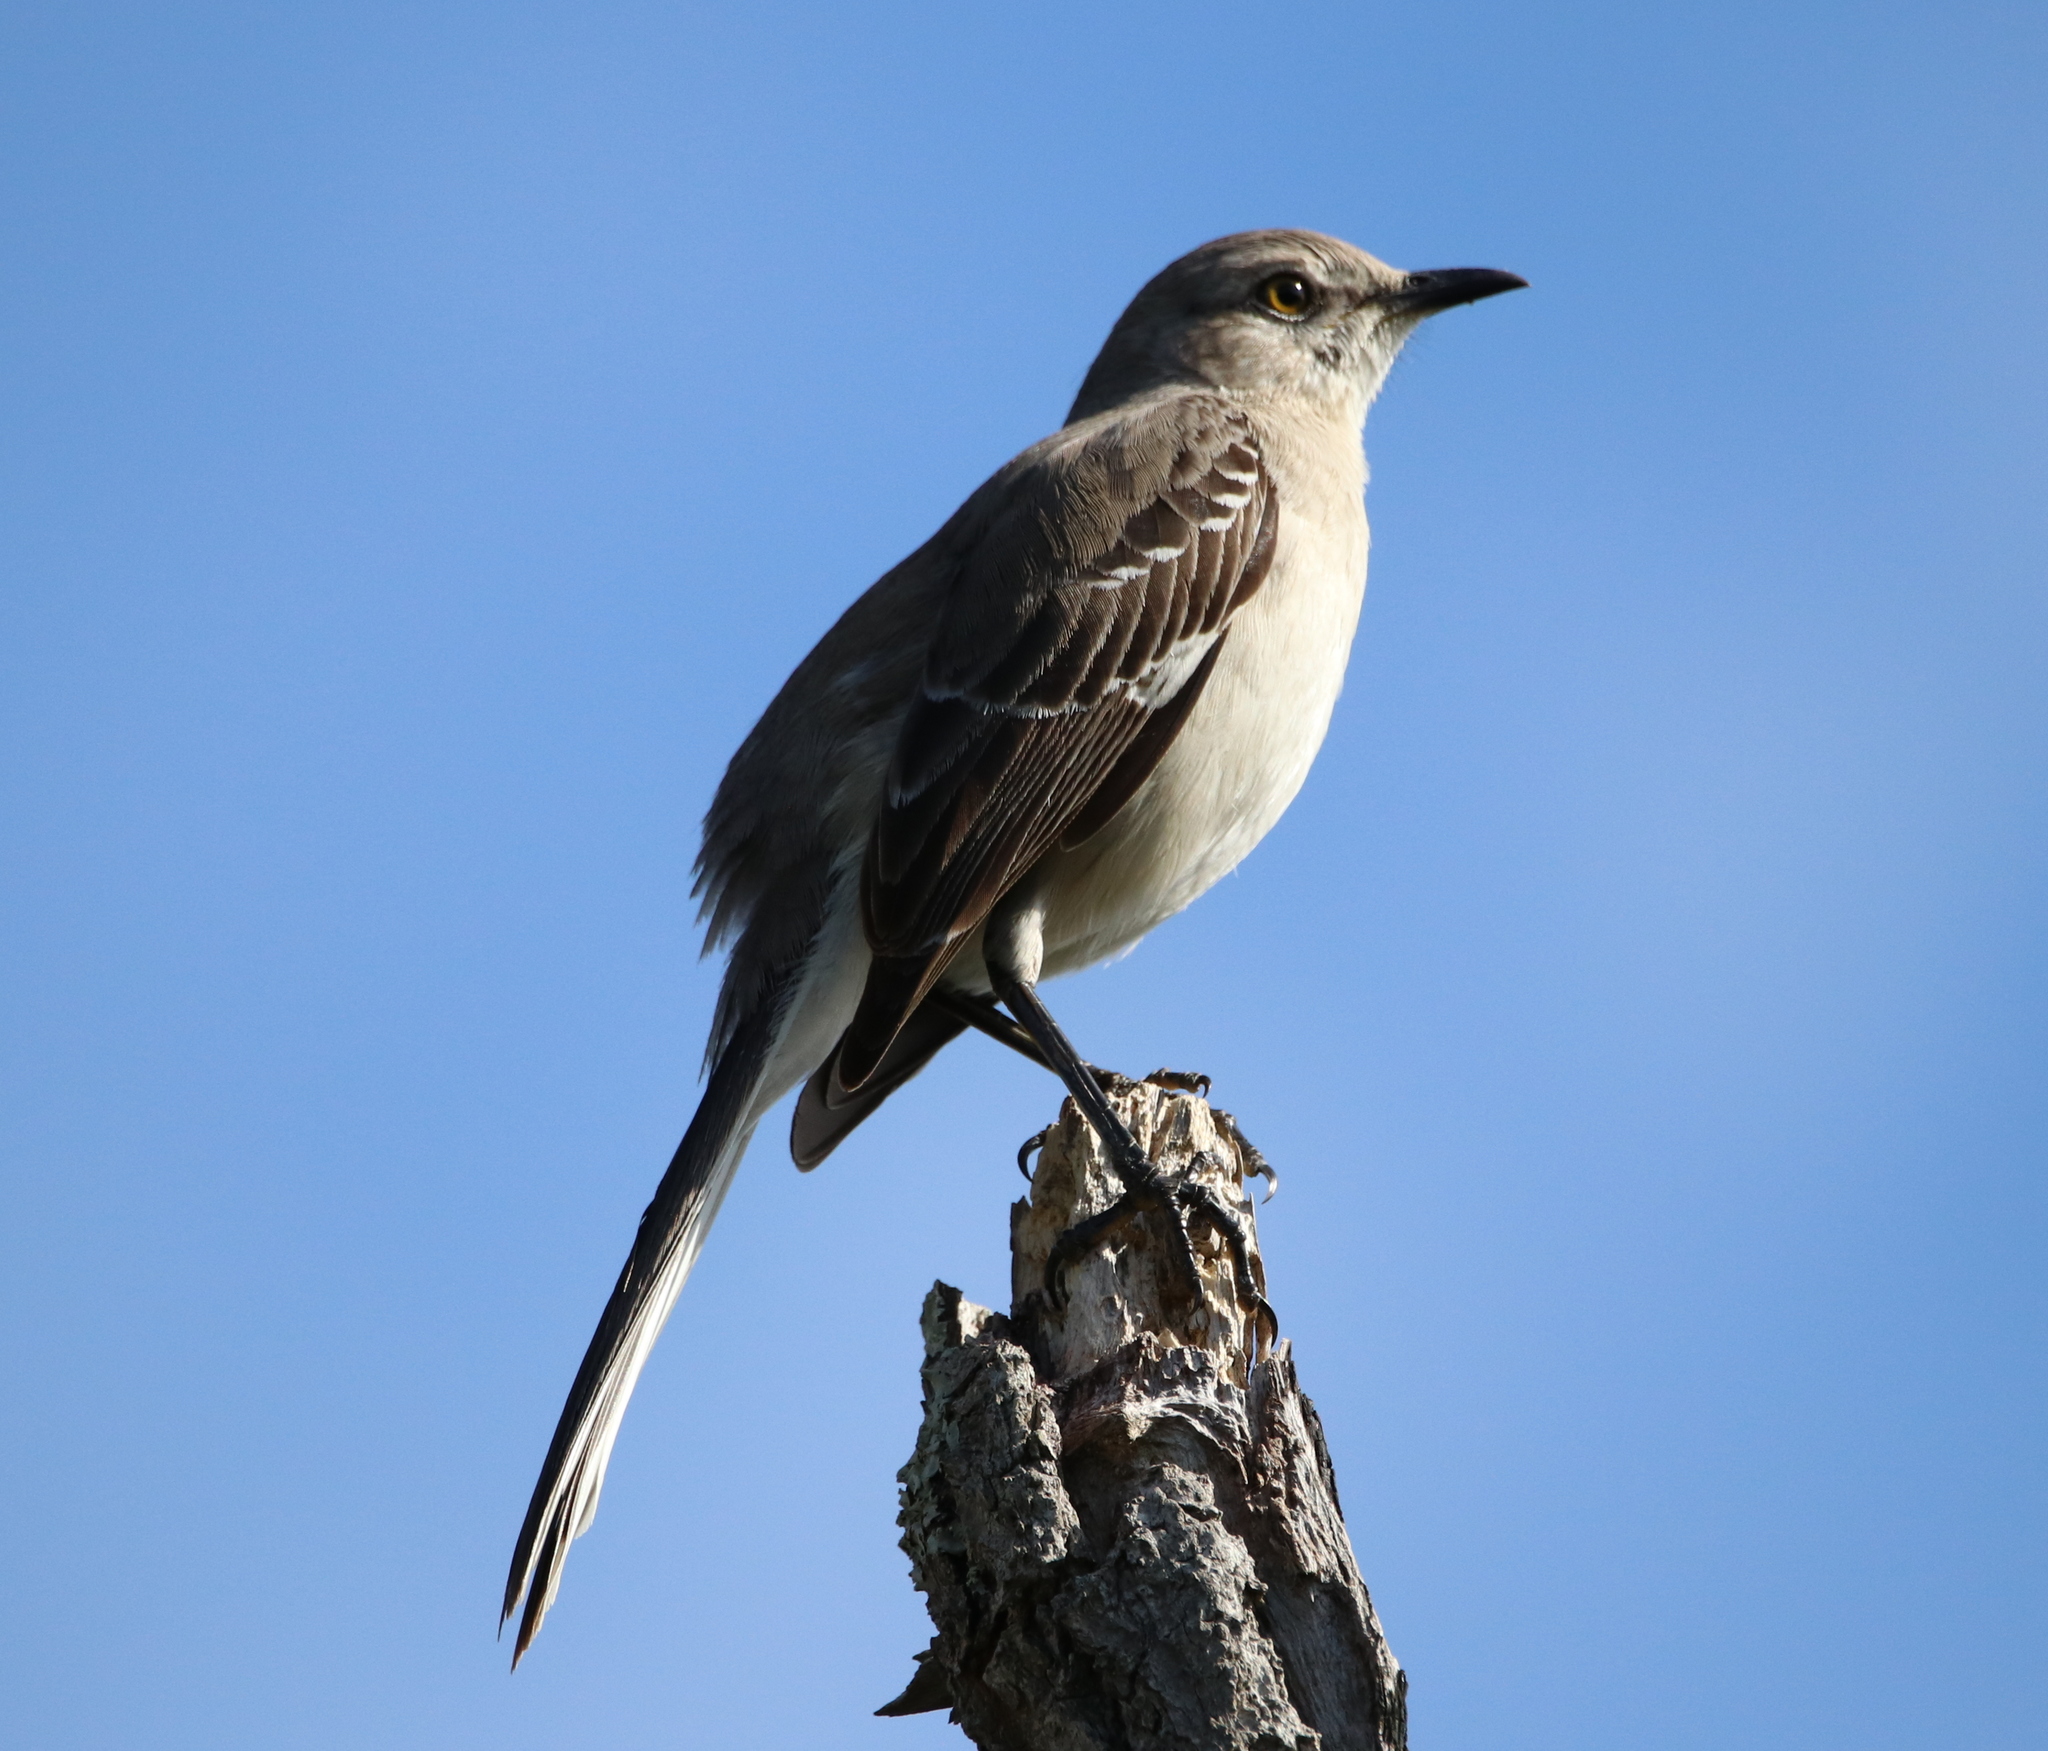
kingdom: Animalia
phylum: Chordata
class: Aves
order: Passeriformes
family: Mimidae
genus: Mimus
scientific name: Mimus polyglottos
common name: Northern mockingbird
